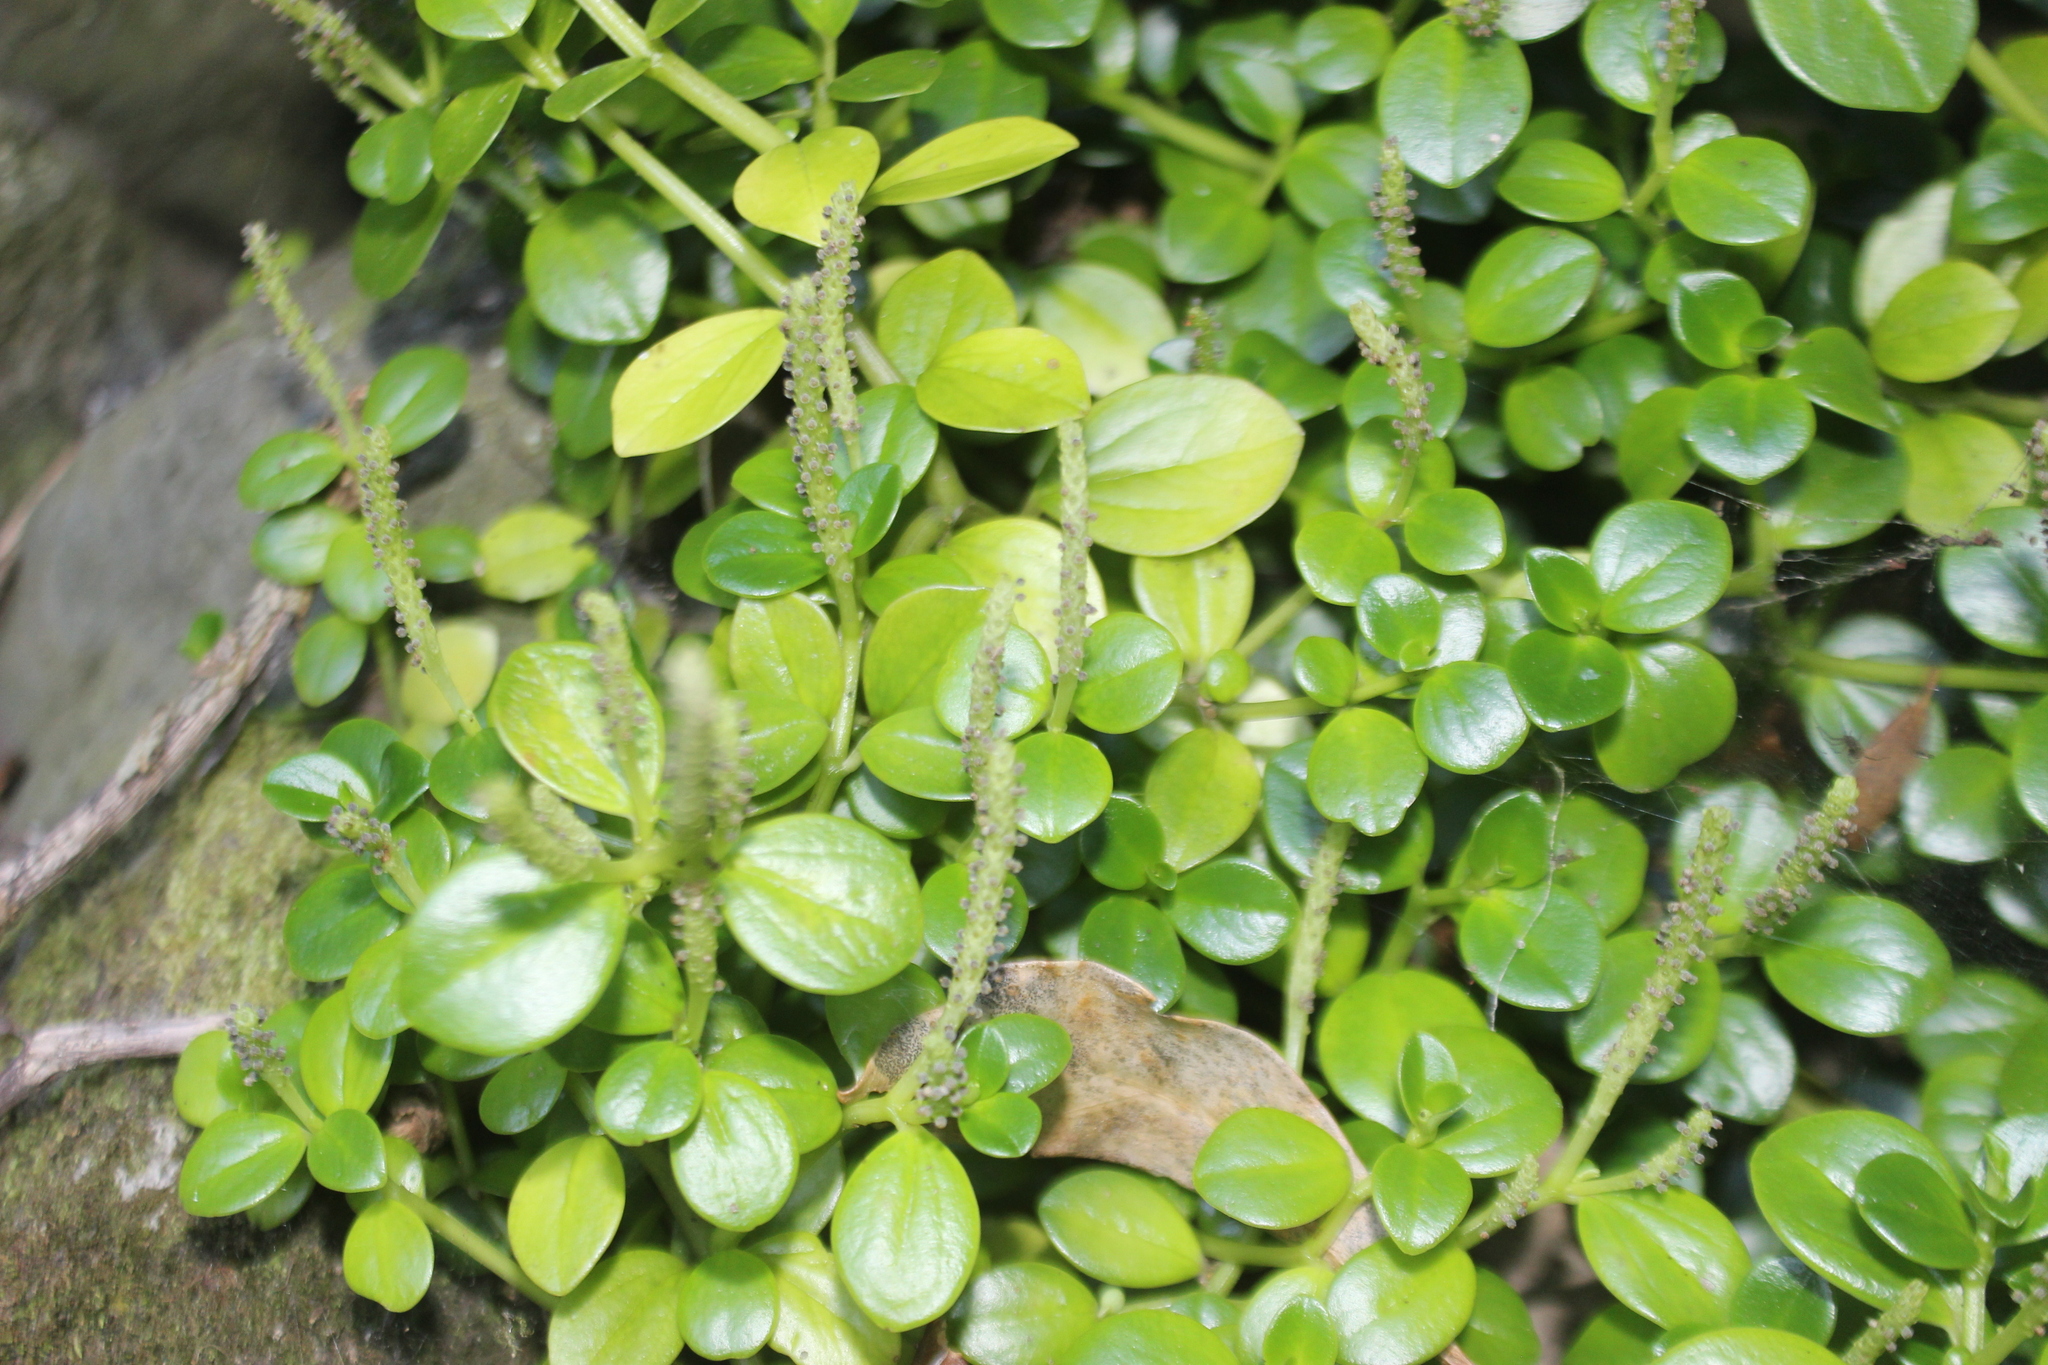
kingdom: Plantae
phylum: Tracheophyta
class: Magnoliopsida
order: Piperales
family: Piperaceae
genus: Peperomia
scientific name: Peperomia urvilleana
